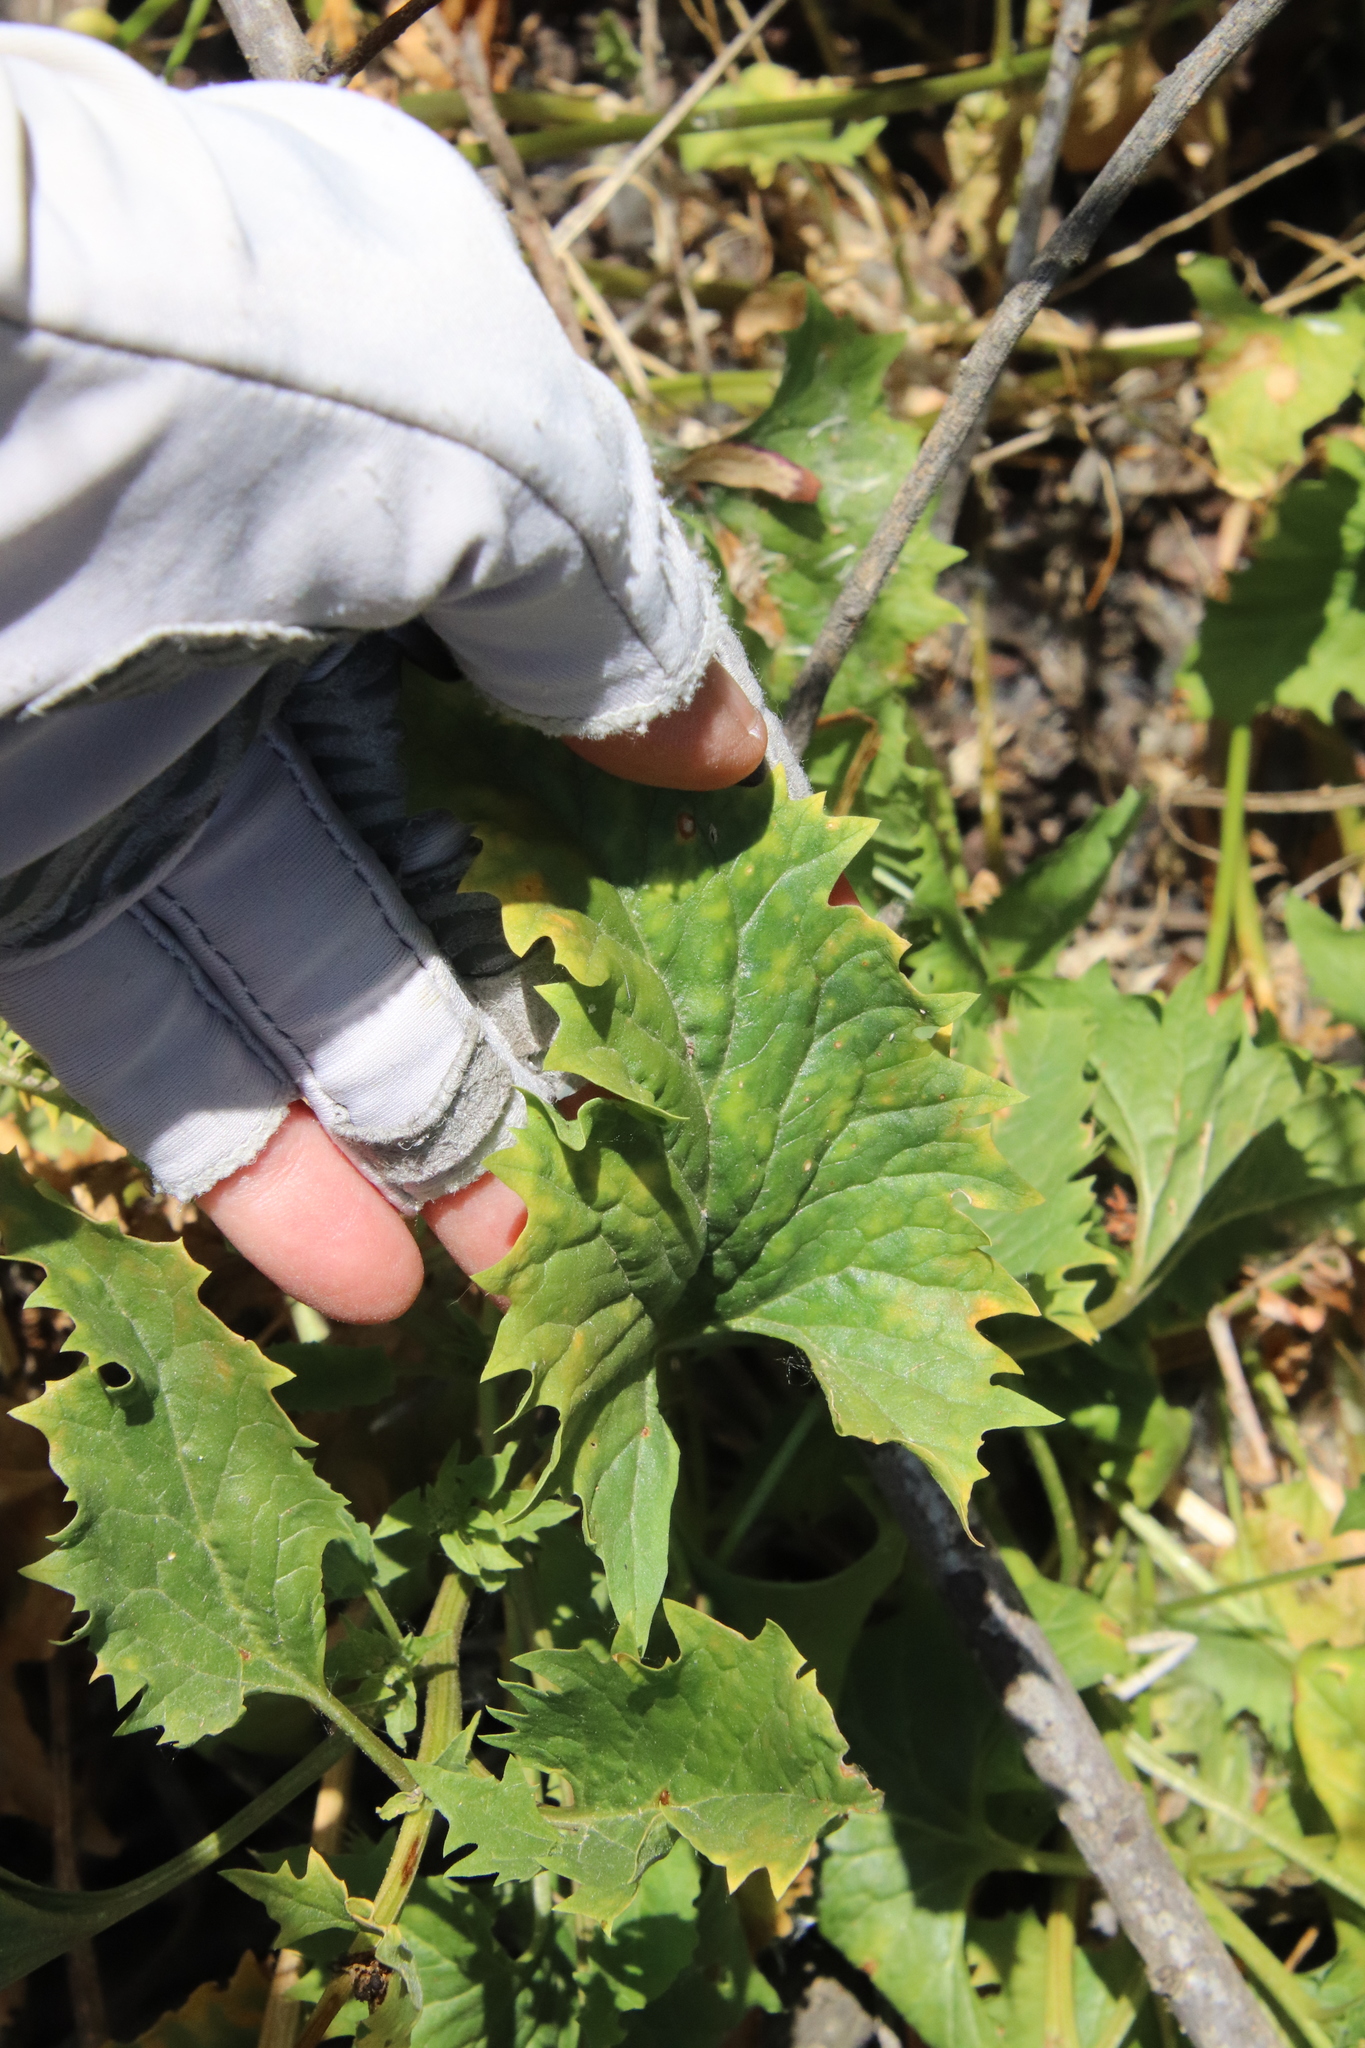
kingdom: Plantae
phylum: Tracheophyta
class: Magnoliopsida
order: Caryophyllales
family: Amaranthaceae
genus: Blitum
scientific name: Blitum californicum
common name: California goosefoot
